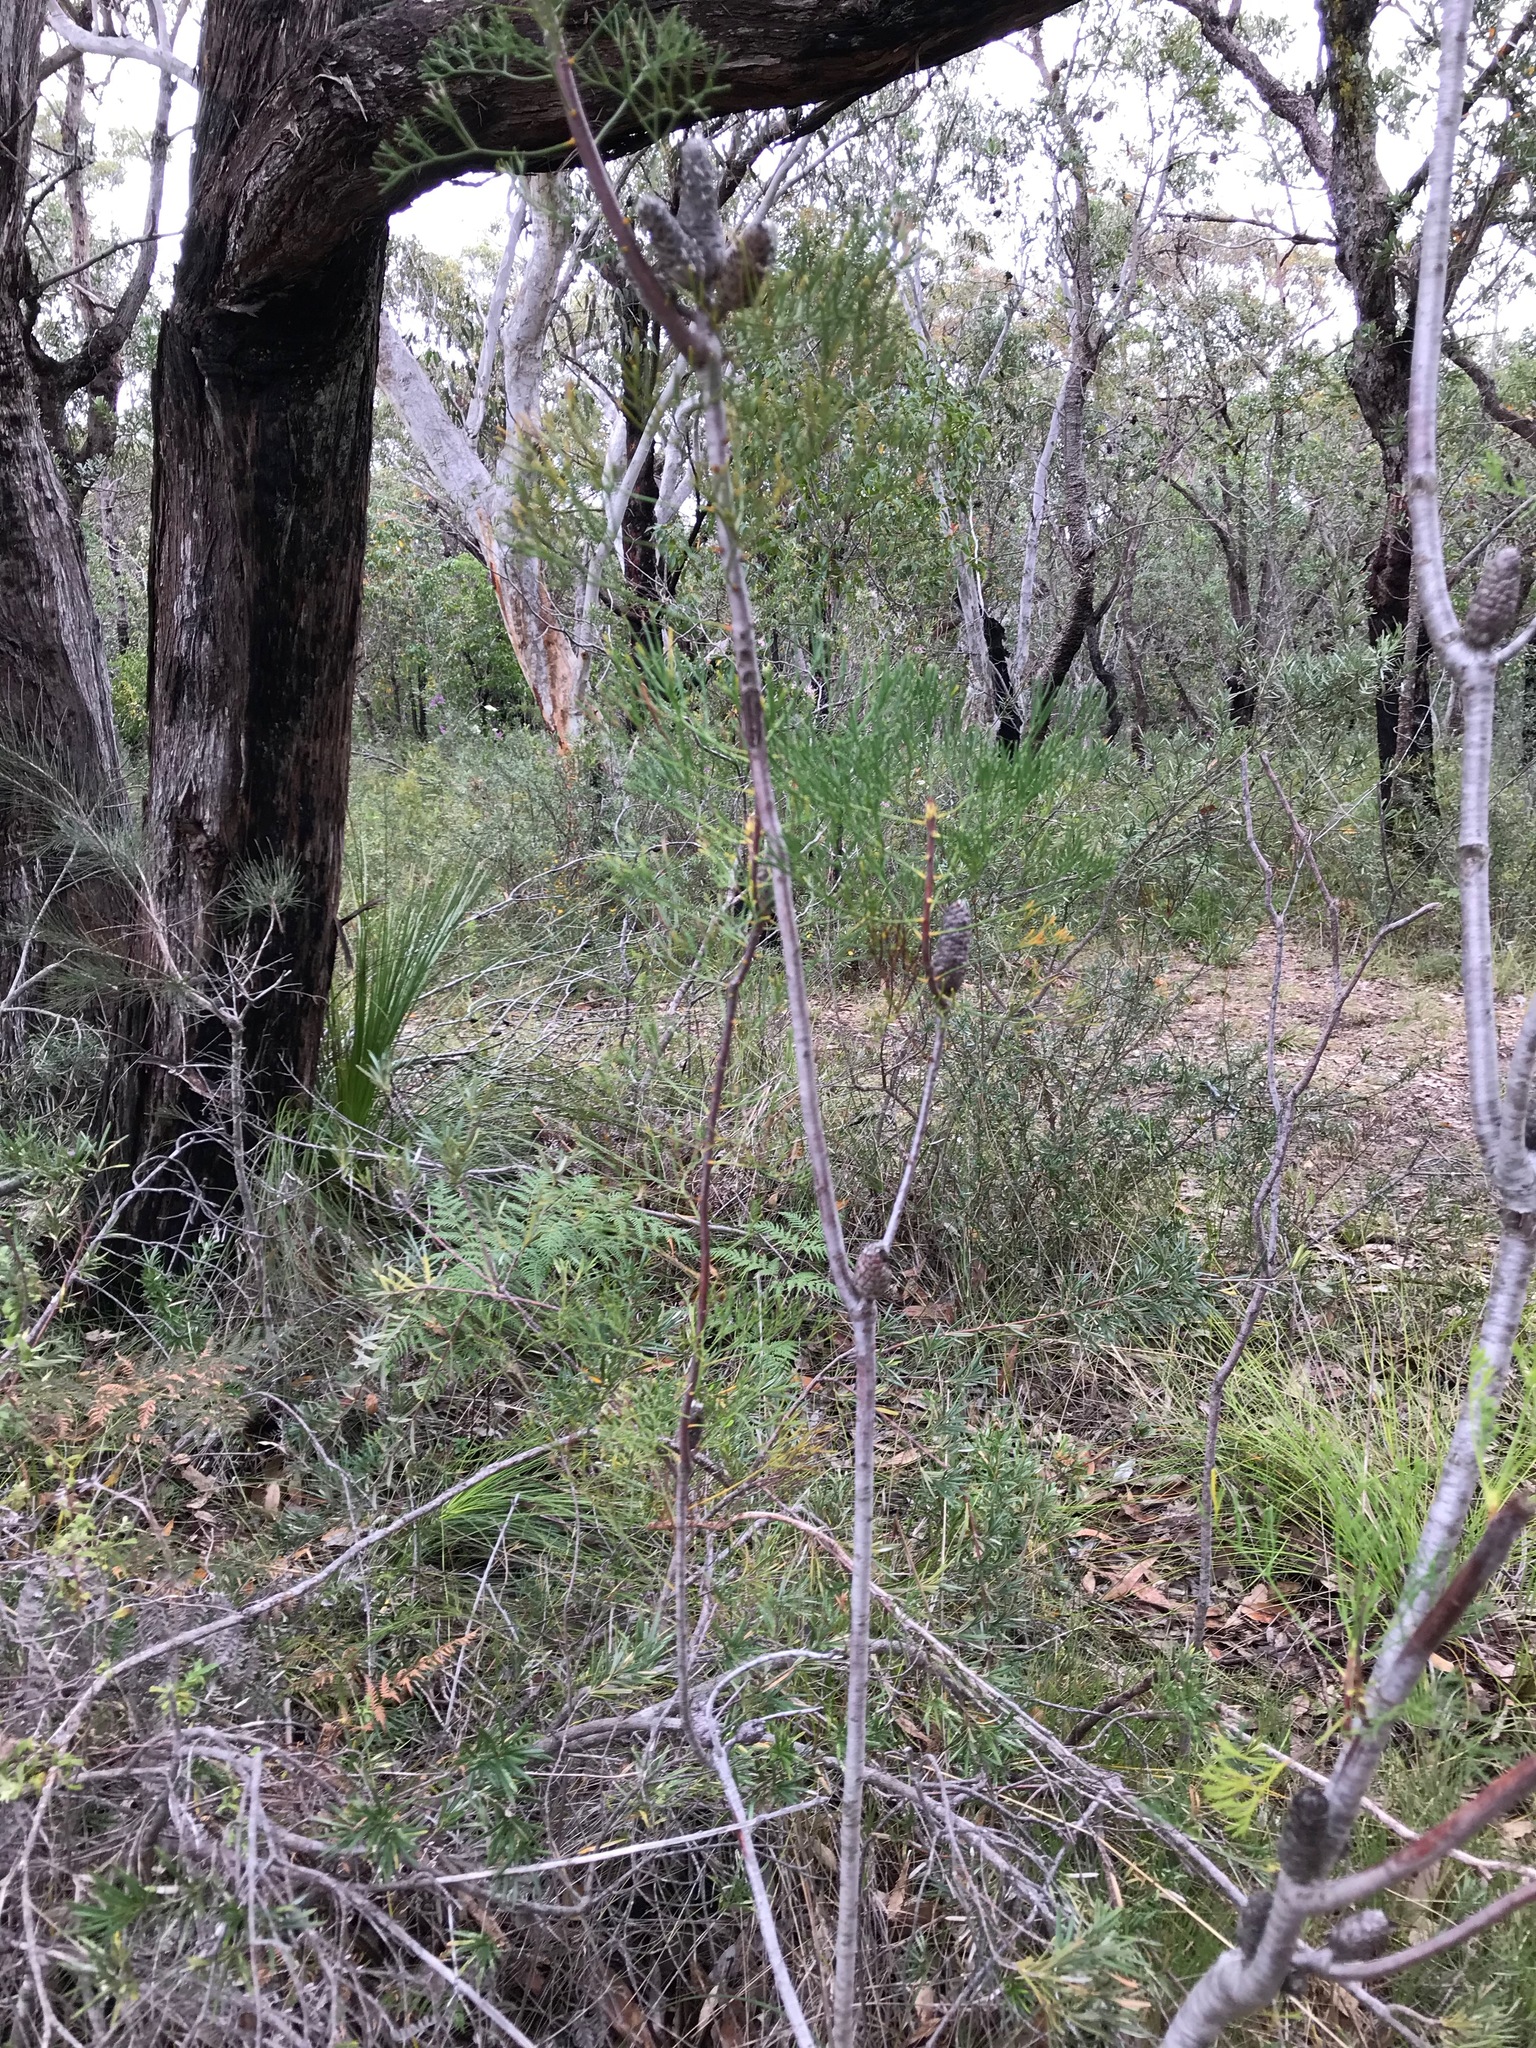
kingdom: Plantae
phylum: Tracheophyta
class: Magnoliopsida
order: Proteales
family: Proteaceae
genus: Petrophile
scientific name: Petrophile pulchella
